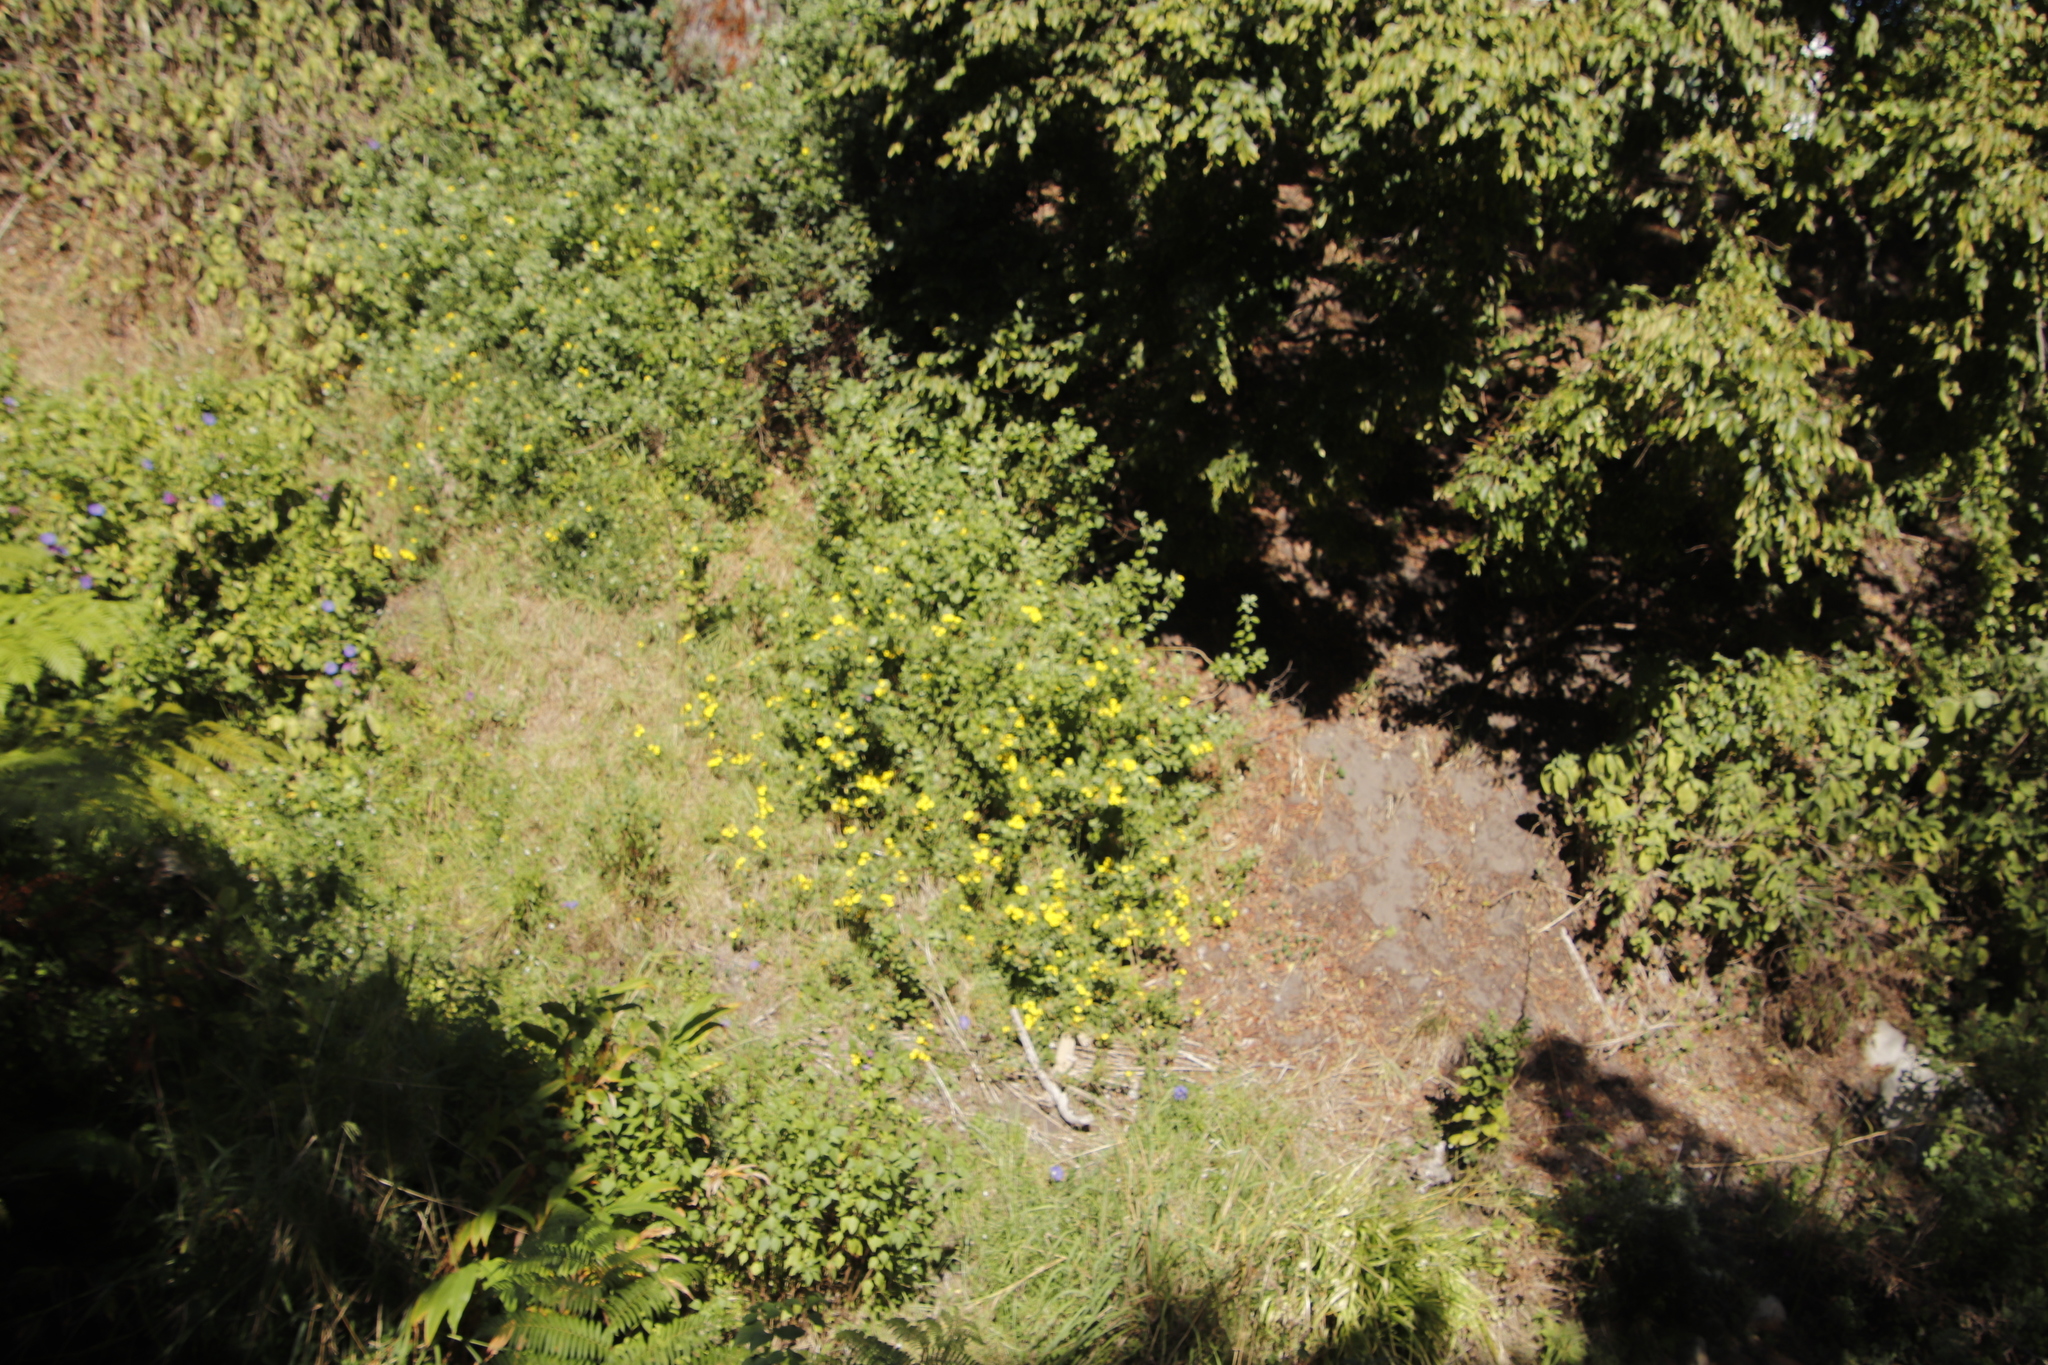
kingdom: Plantae
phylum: Tracheophyta
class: Magnoliopsida
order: Asterales
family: Asteraceae
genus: Osteospermum
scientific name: Osteospermum moniliferum
